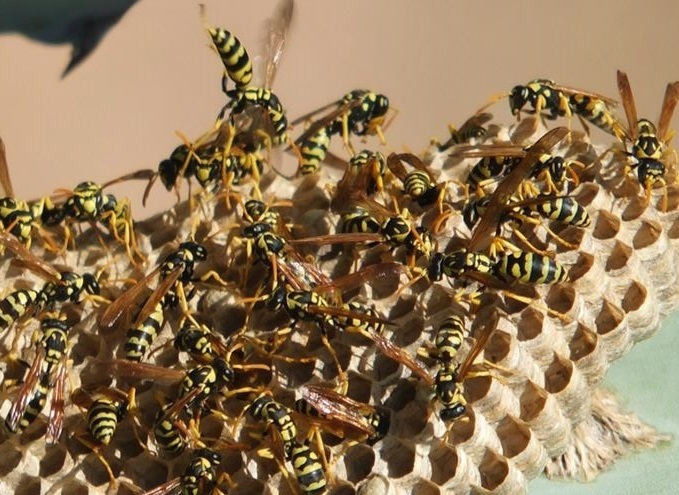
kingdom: Animalia
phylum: Arthropoda
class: Insecta
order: Hymenoptera
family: Eumenidae
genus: Polistes
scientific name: Polistes gallicus
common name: Paper wasp
